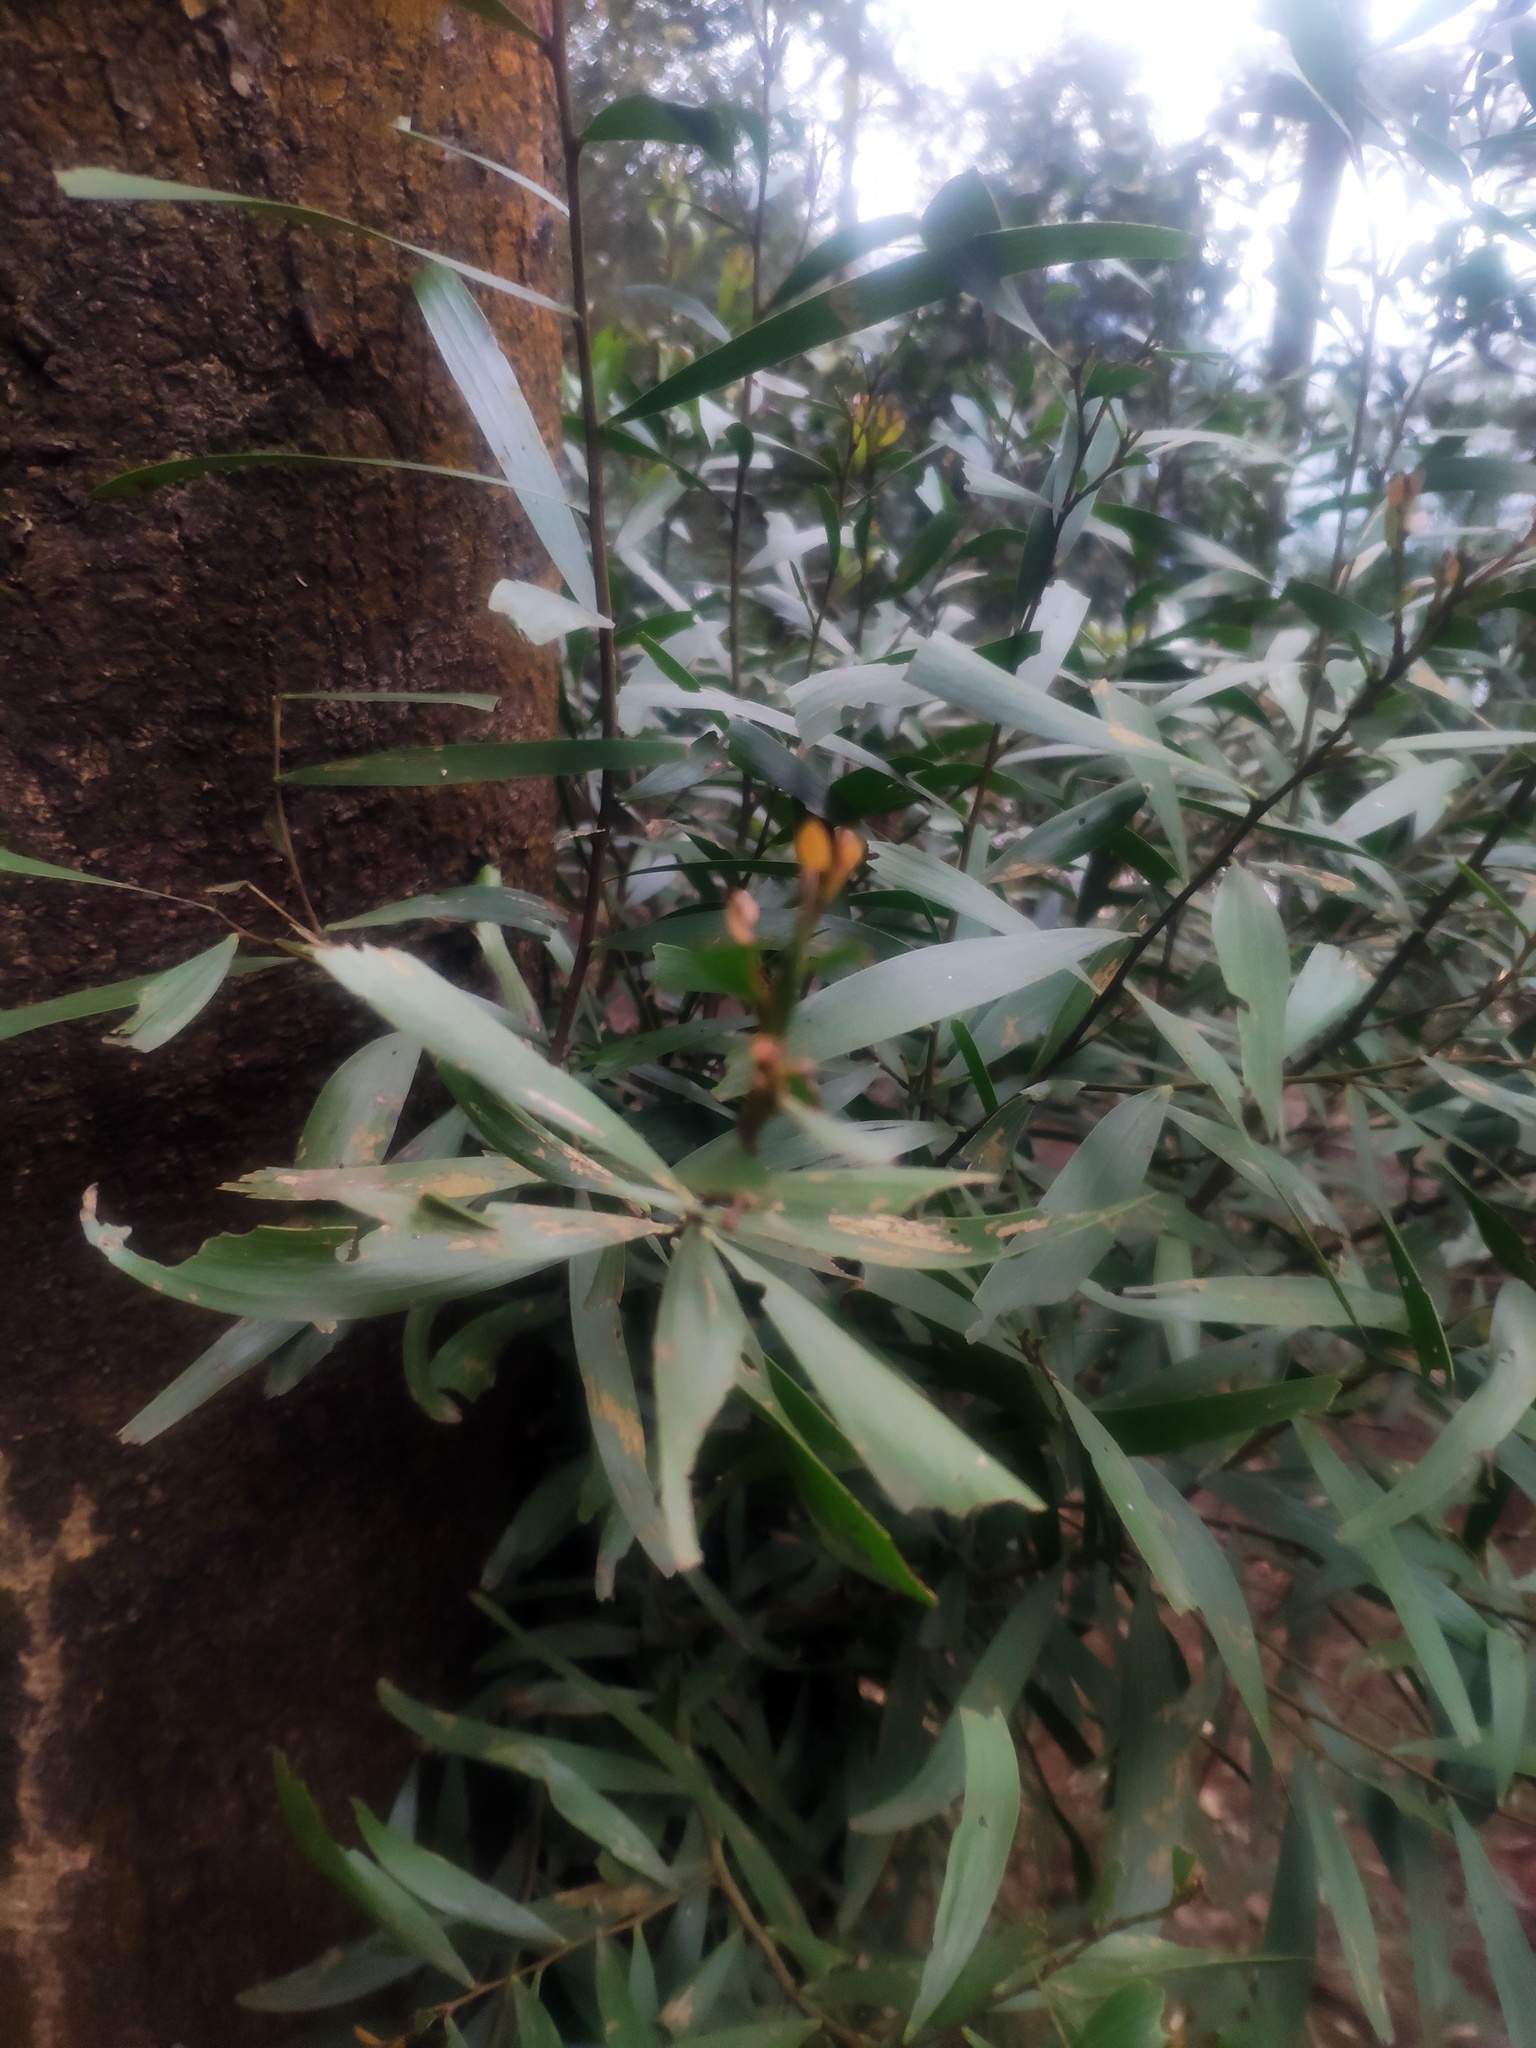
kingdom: Plantae
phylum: Tracheophyta
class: Magnoliopsida
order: Fabales
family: Fabaceae
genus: Acacia
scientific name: Acacia confusa
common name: Formosan koa
